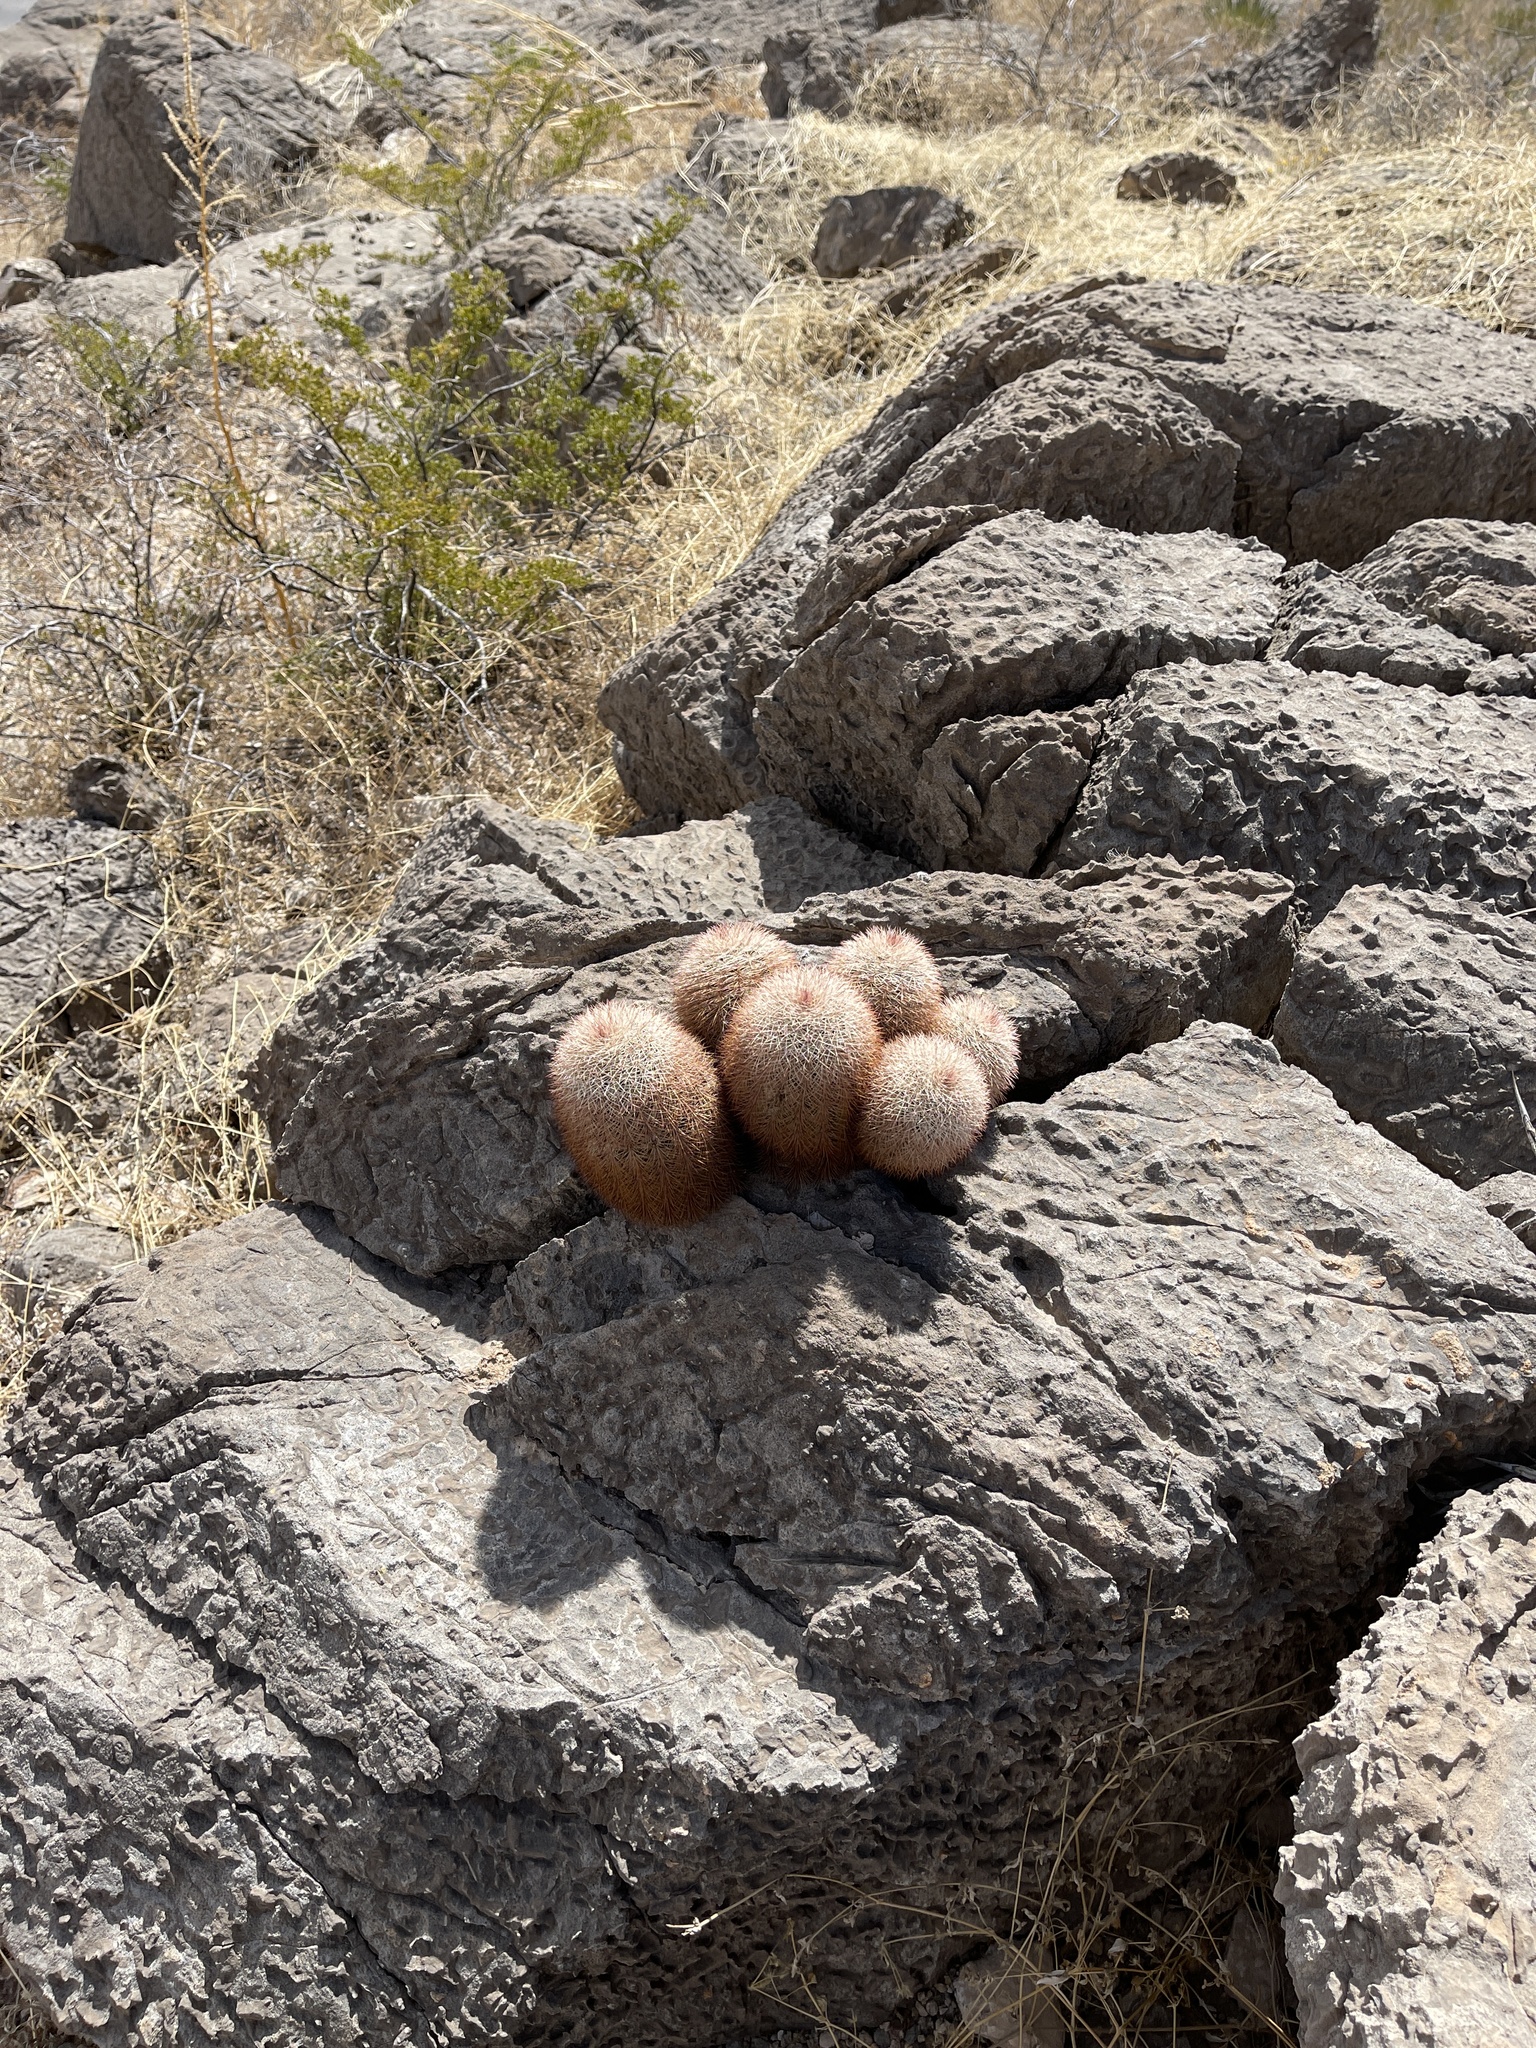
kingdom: Plantae
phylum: Tracheophyta
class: Magnoliopsida
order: Caryophyllales
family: Cactaceae
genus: Echinocereus
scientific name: Echinocereus dasyacanthus
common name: Spiny hedgehog cactus
